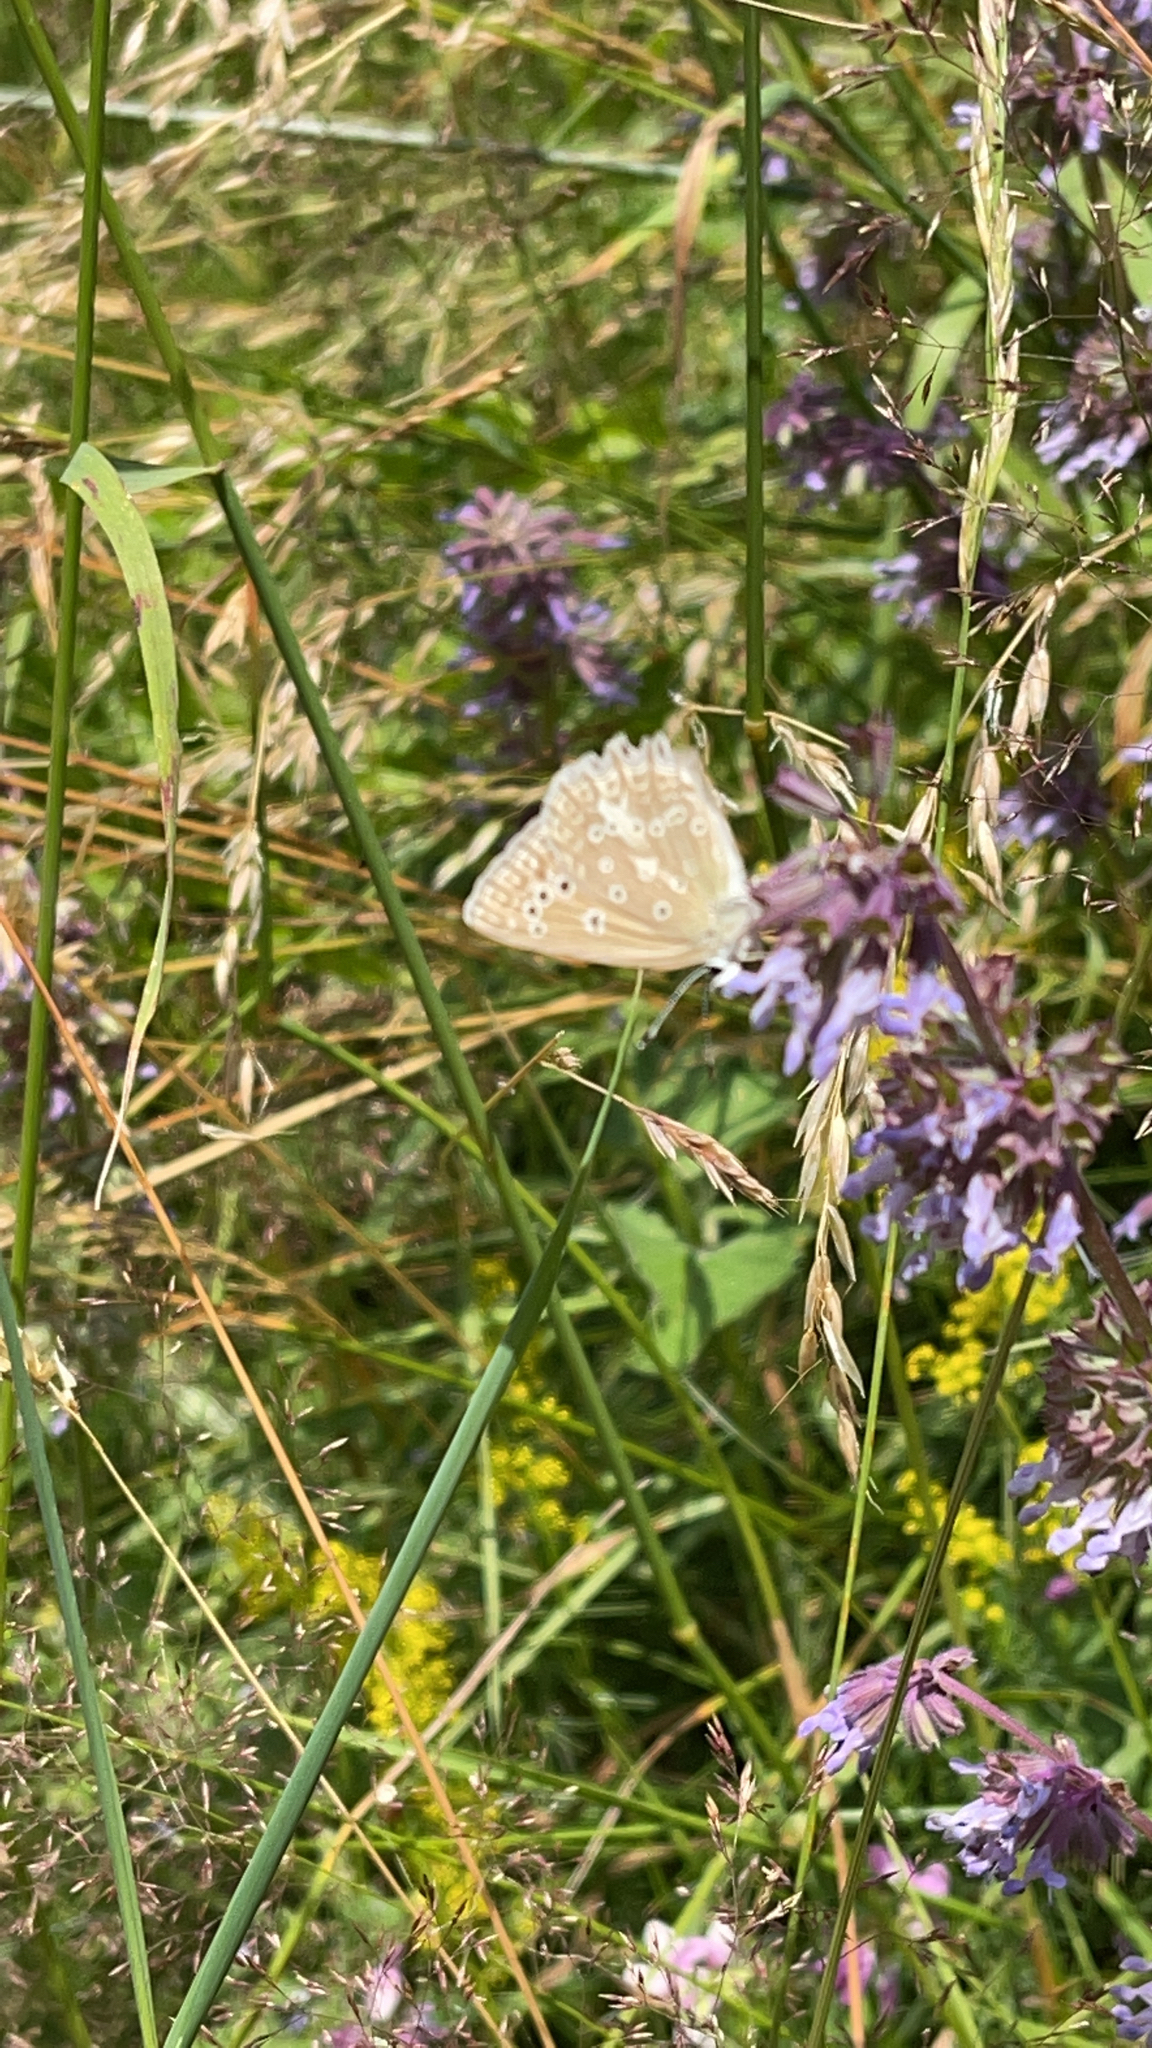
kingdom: Animalia
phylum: Arthropoda
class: Insecta
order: Lepidoptera
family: Lycaenidae
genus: Polyommatus
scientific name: Polyommatus daphnis
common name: Meleager's blue
